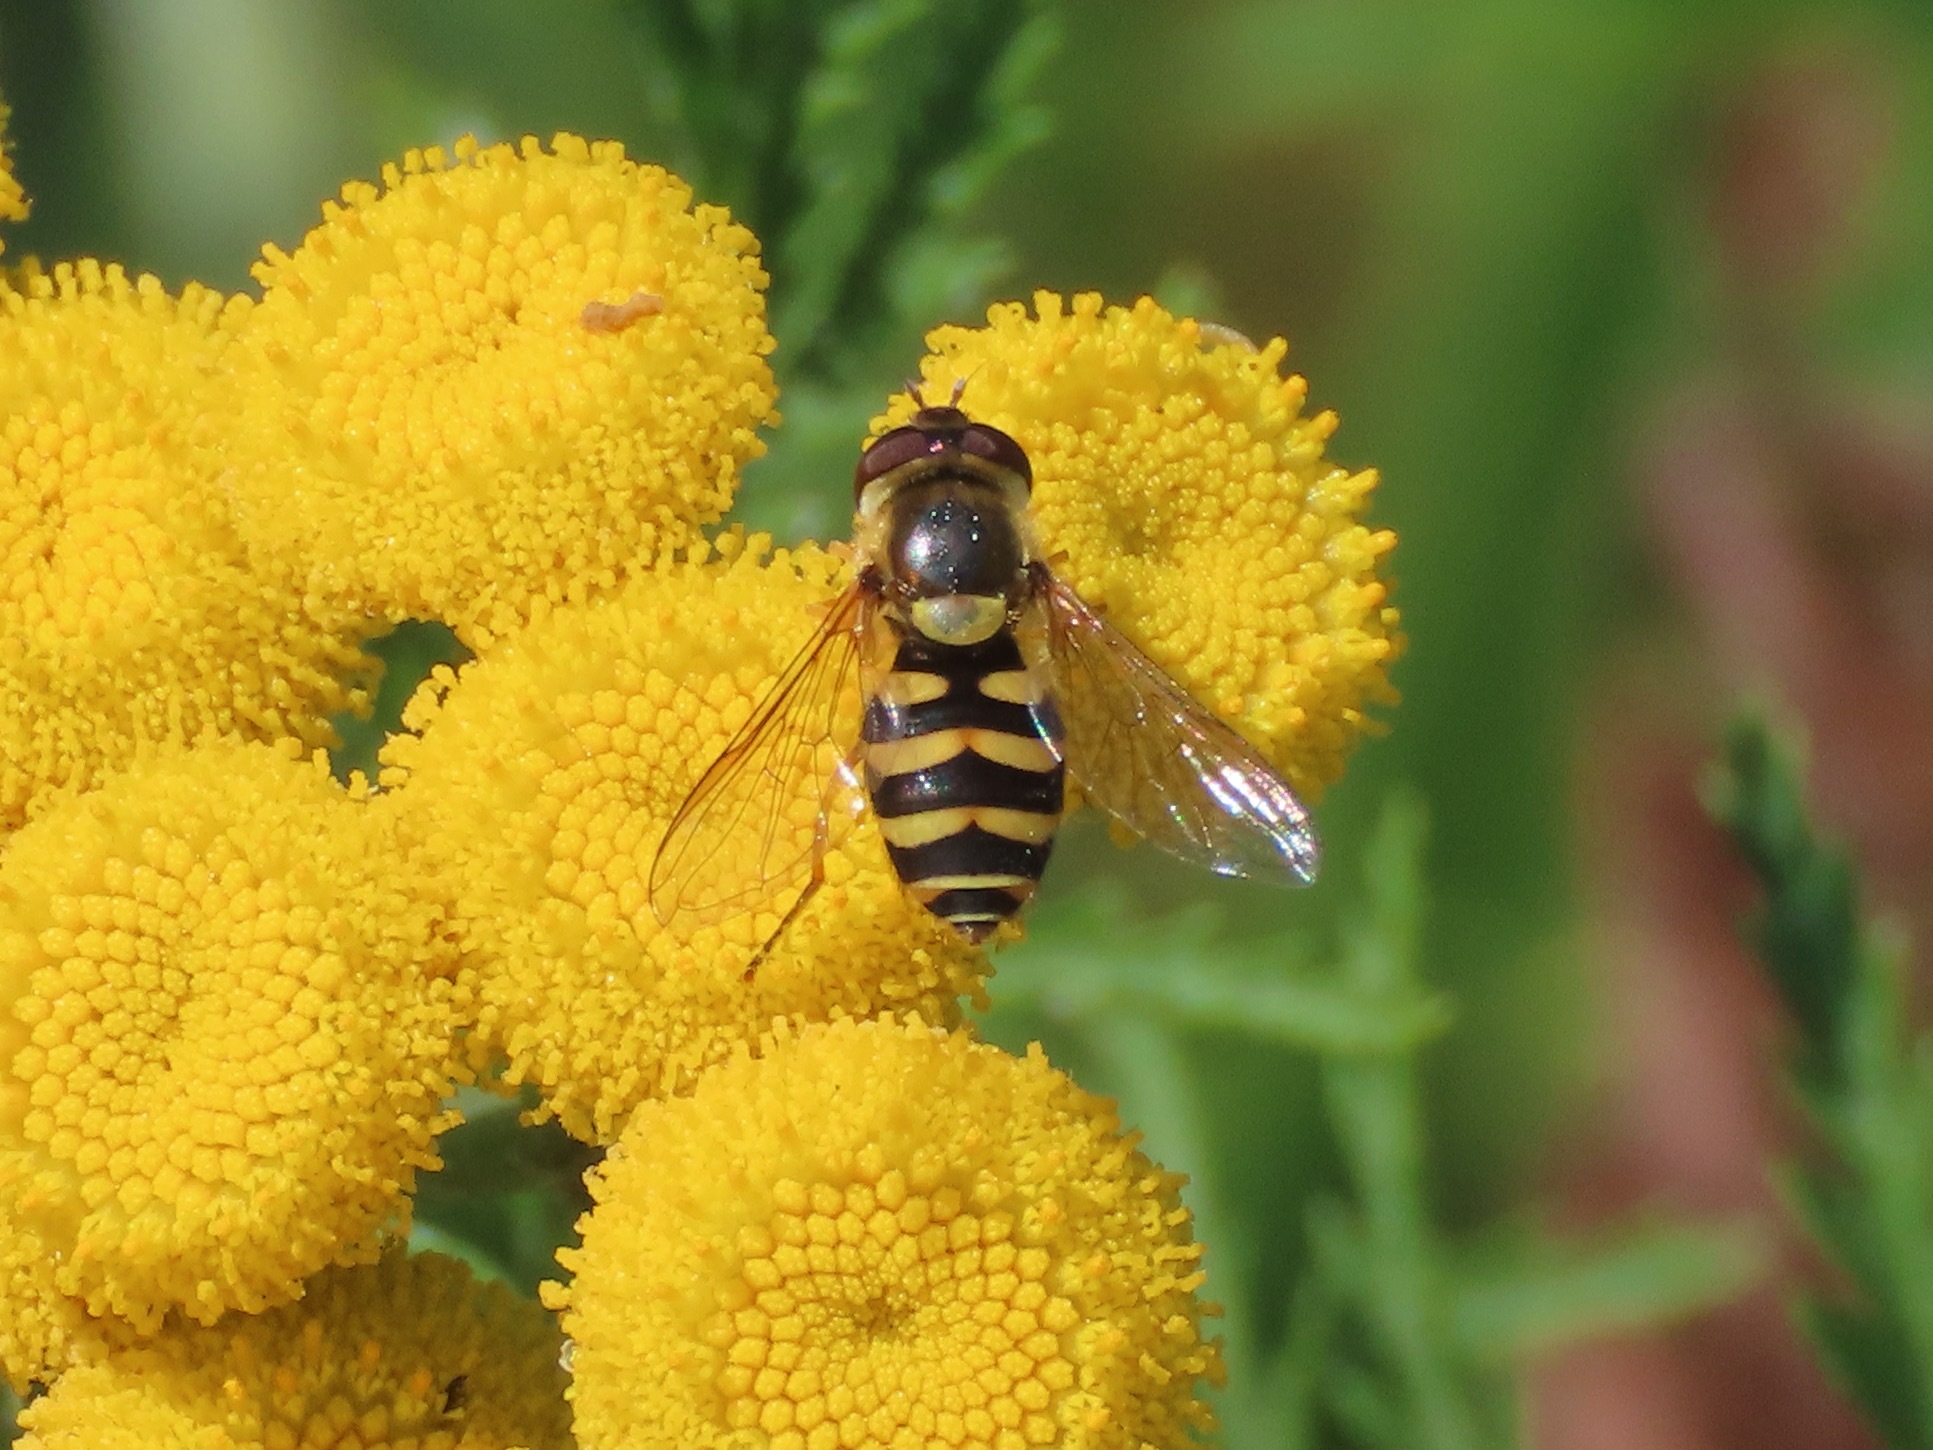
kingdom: Animalia
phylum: Arthropoda
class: Insecta
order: Diptera
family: Syrphidae
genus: Syrphus
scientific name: Syrphus
